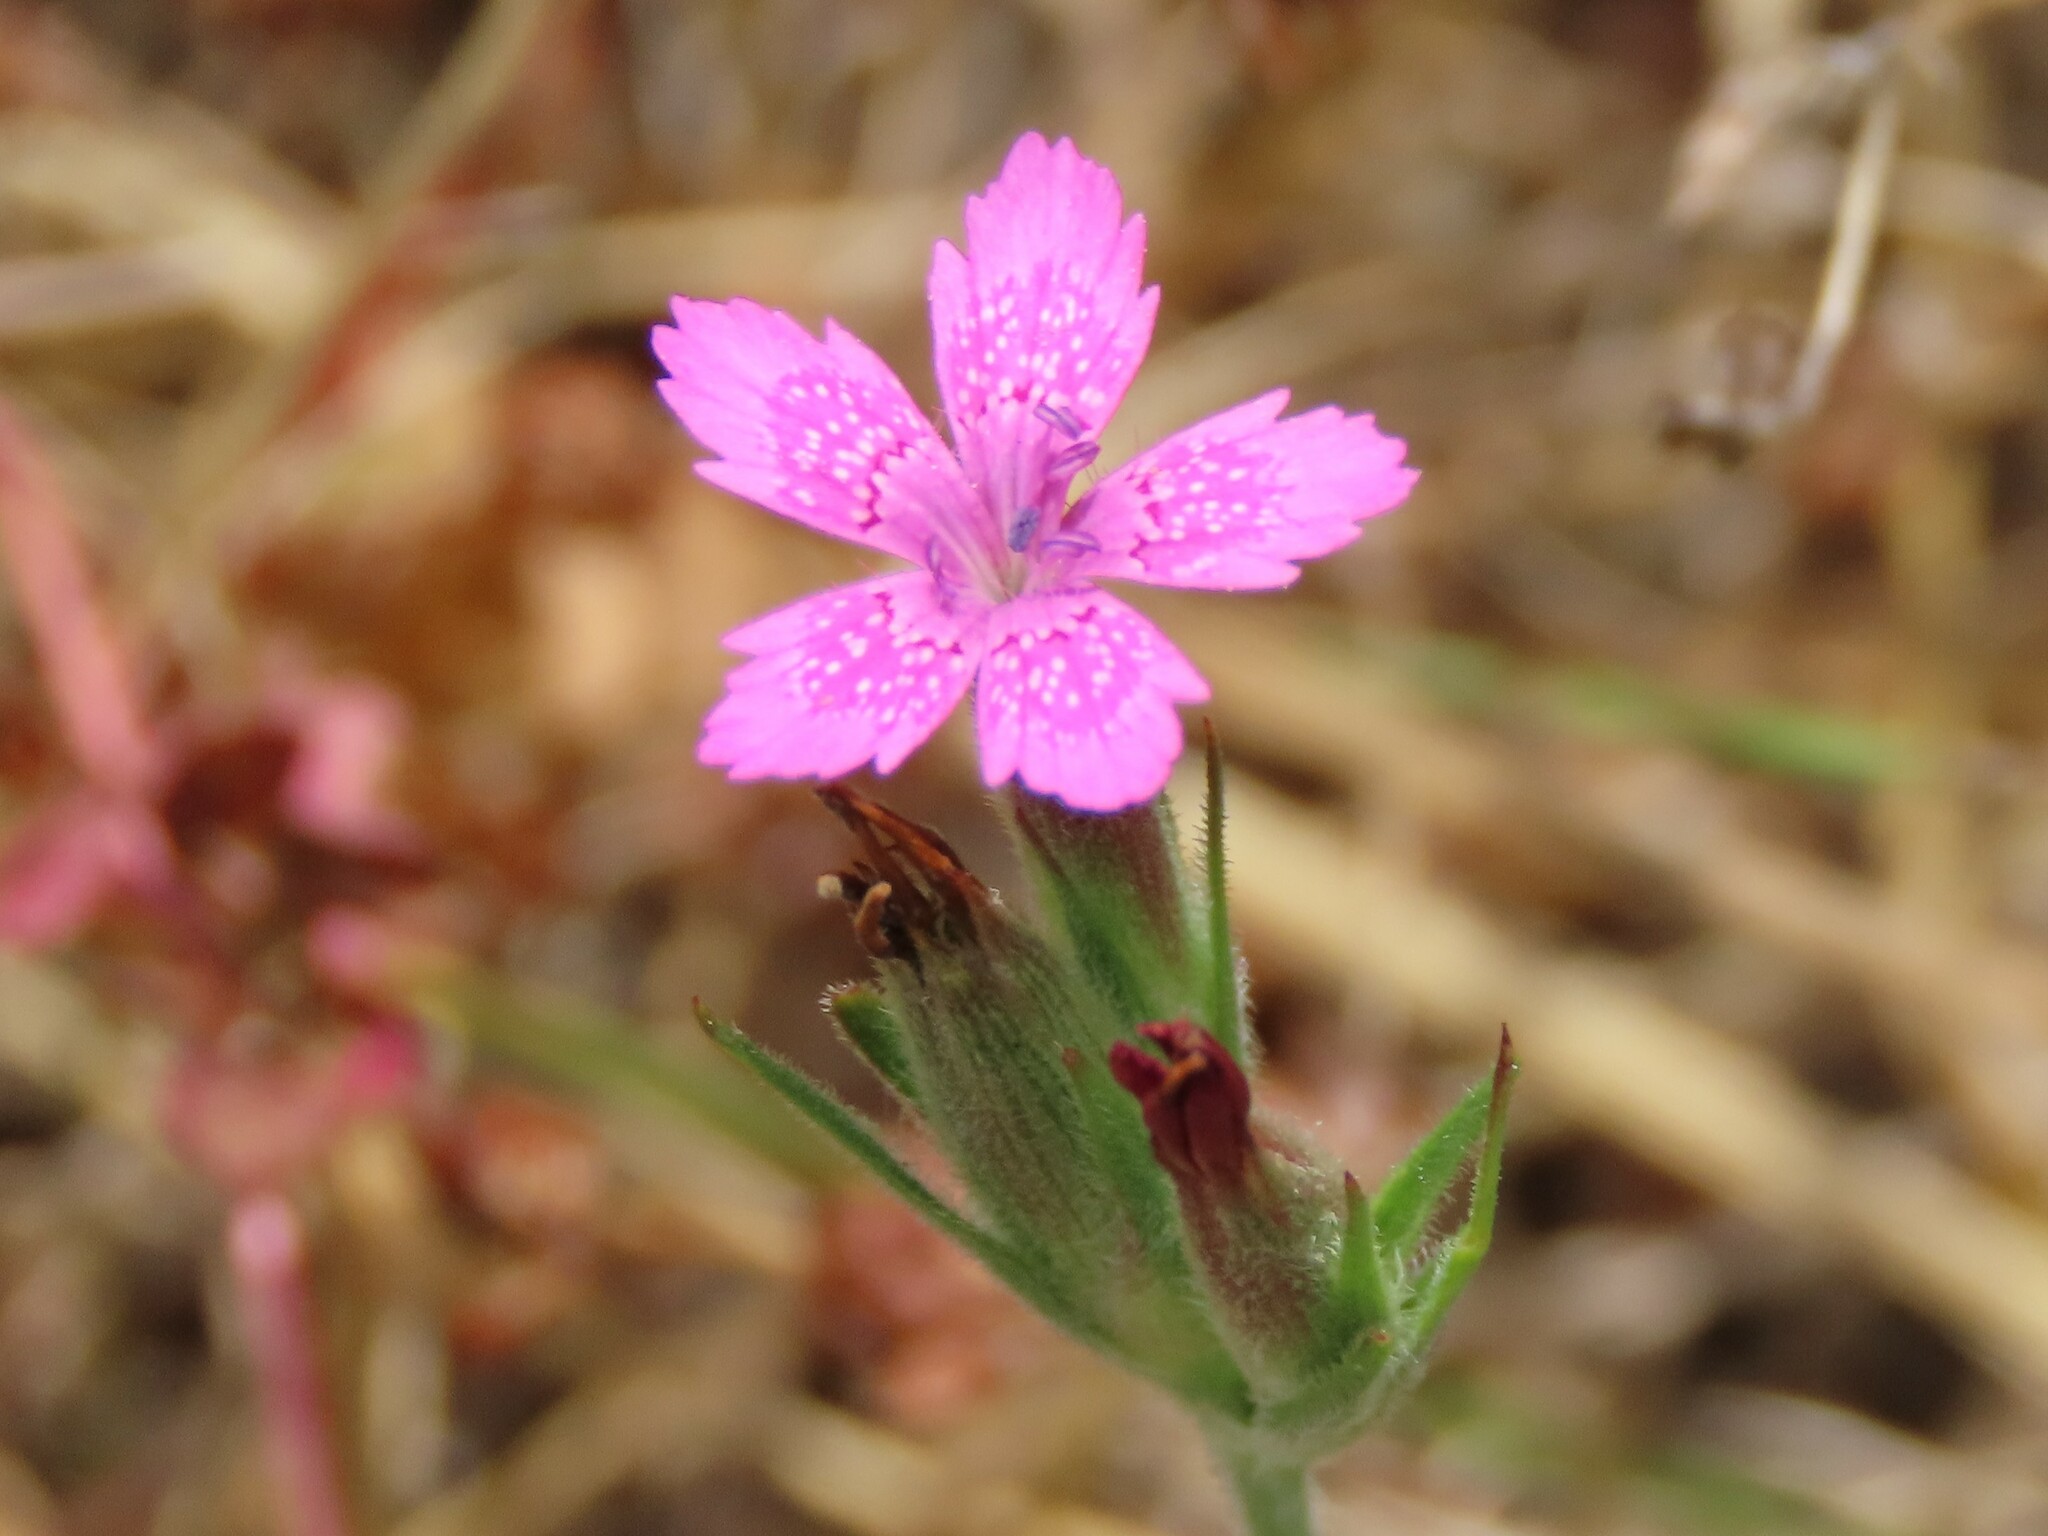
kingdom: Plantae
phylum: Tracheophyta
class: Magnoliopsida
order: Caryophyllales
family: Caryophyllaceae
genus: Dianthus
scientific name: Dianthus armeria
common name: Deptford pink
